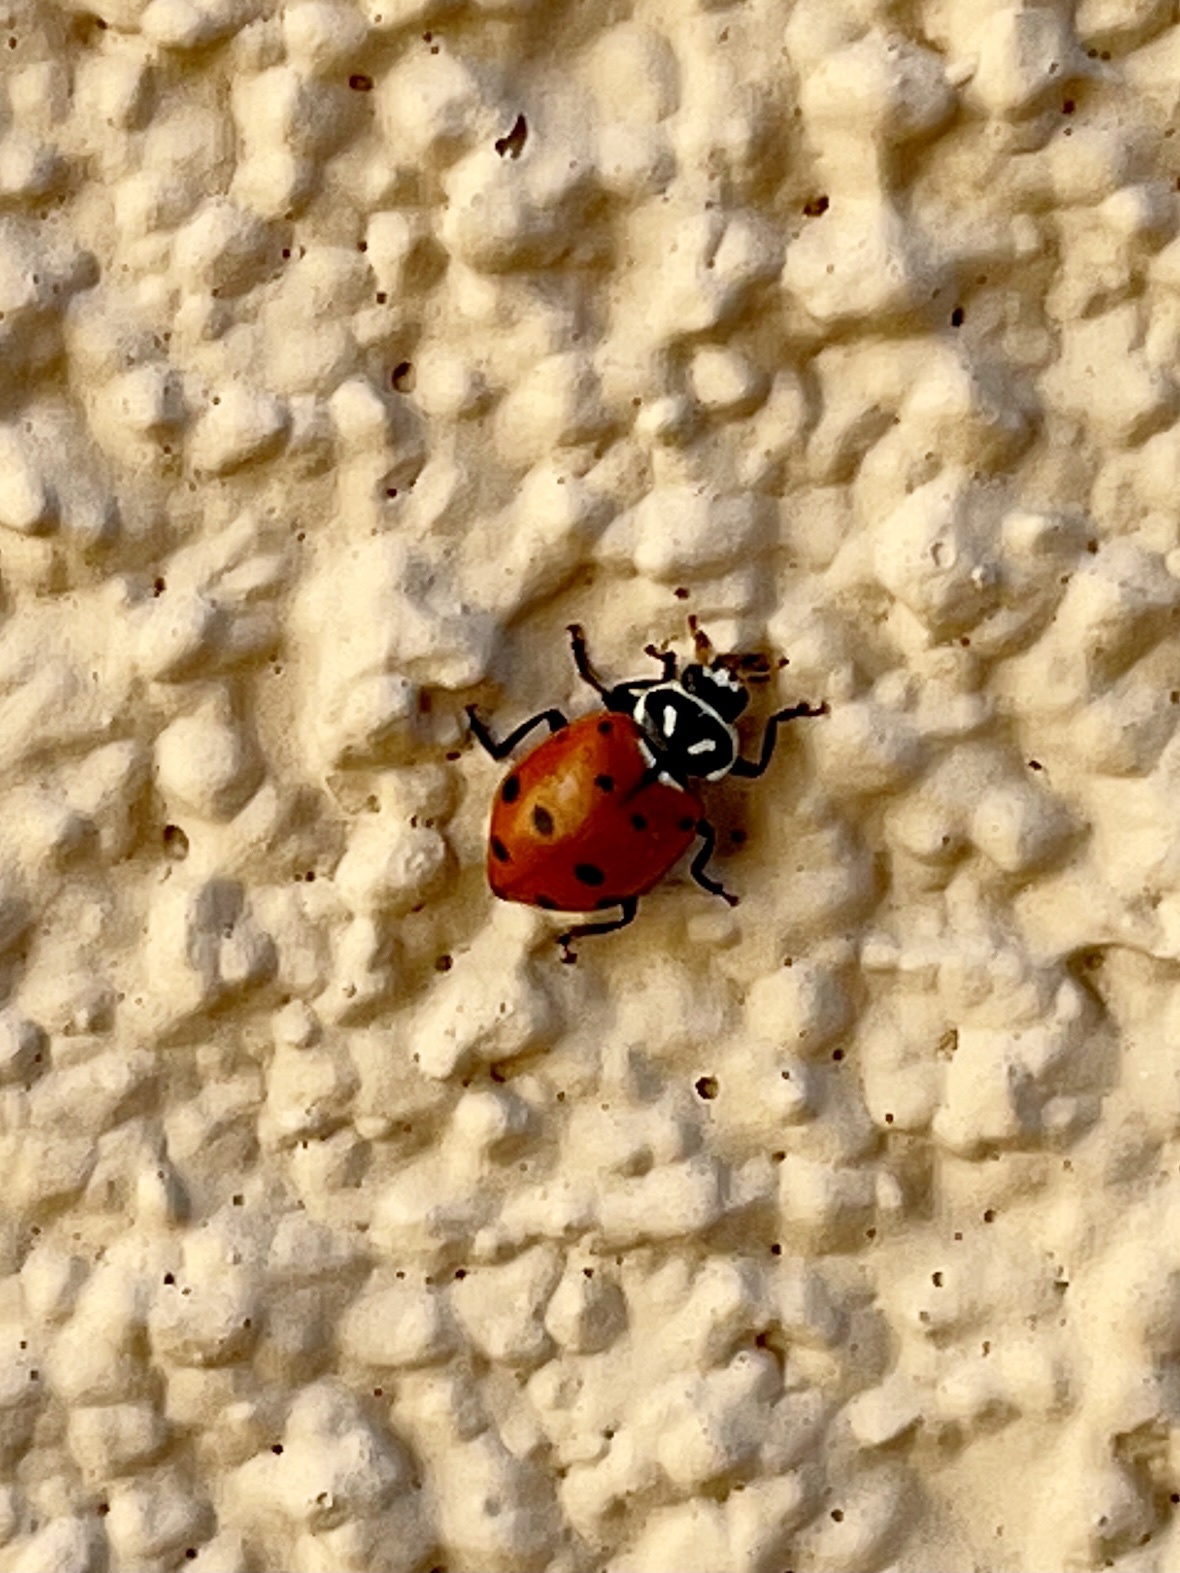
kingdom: Animalia
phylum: Arthropoda
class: Insecta
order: Coleoptera
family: Coccinellidae
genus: Hippodamia
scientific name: Hippodamia convergens
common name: Convergent lady beetle
